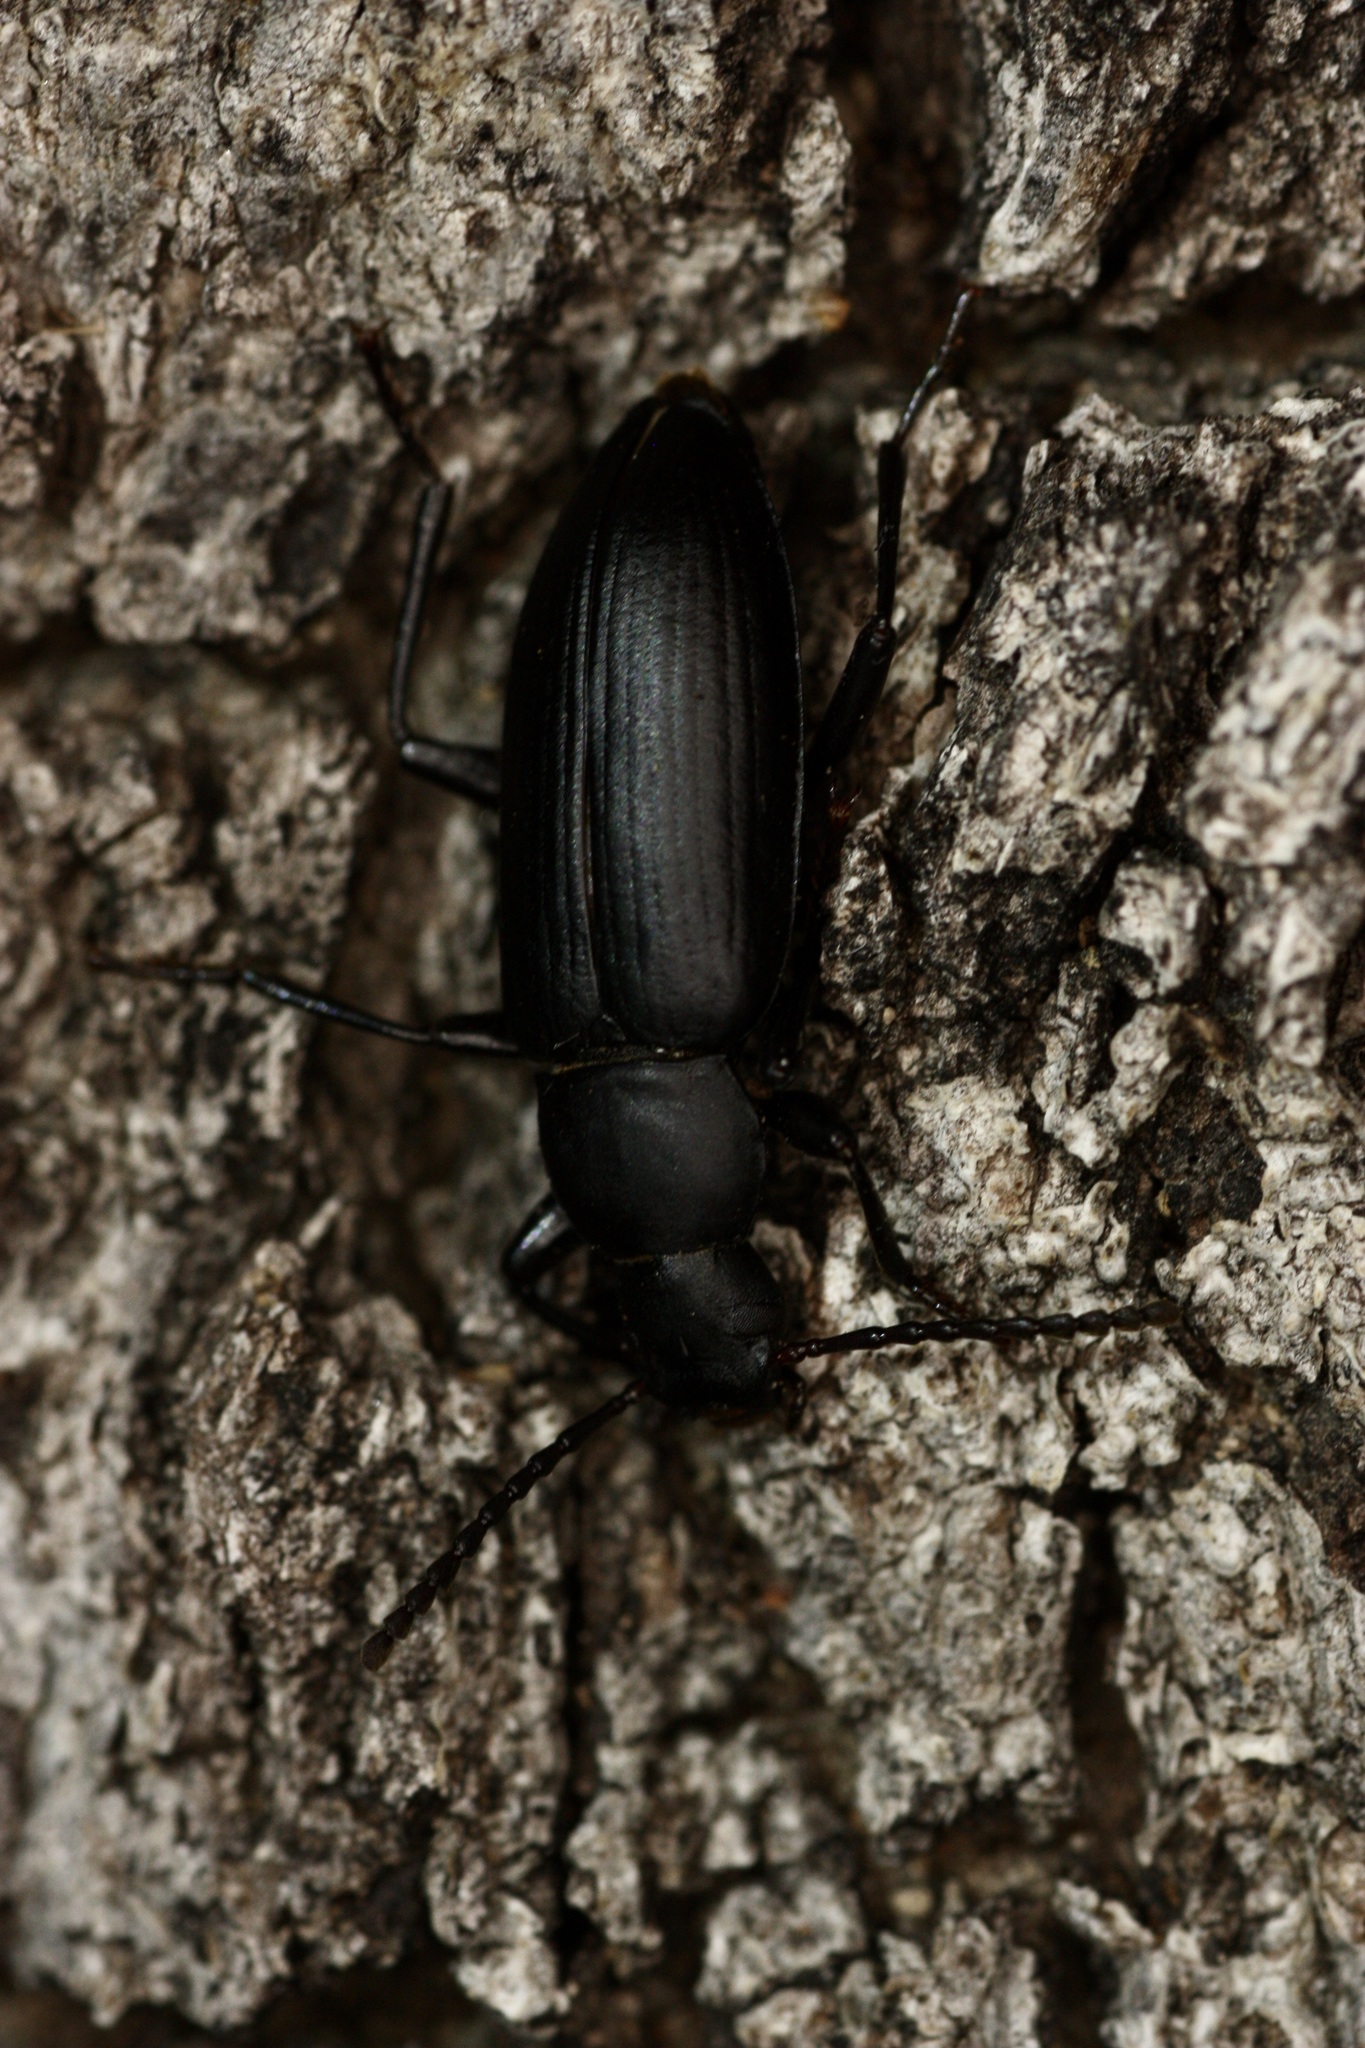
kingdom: Animalia
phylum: Arthropoda
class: Insecta
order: Coleoptera
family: Tenebrionidae
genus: Zophobas
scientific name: Zophobas
